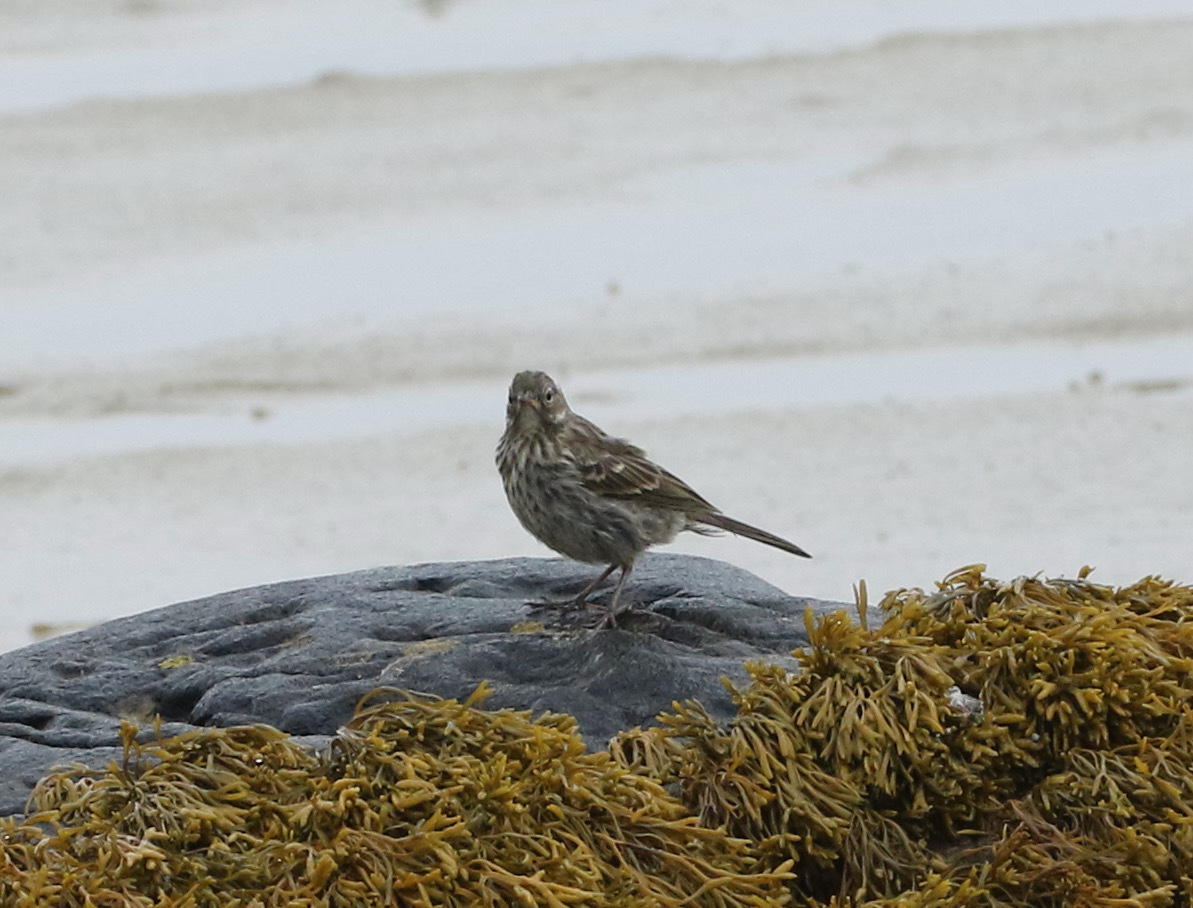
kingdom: Animalia
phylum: Chordata
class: Aves
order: Passeriformes
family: Motacillidae
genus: Anthus
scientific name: Anthus petrosus
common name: Eurasian rock pipit
